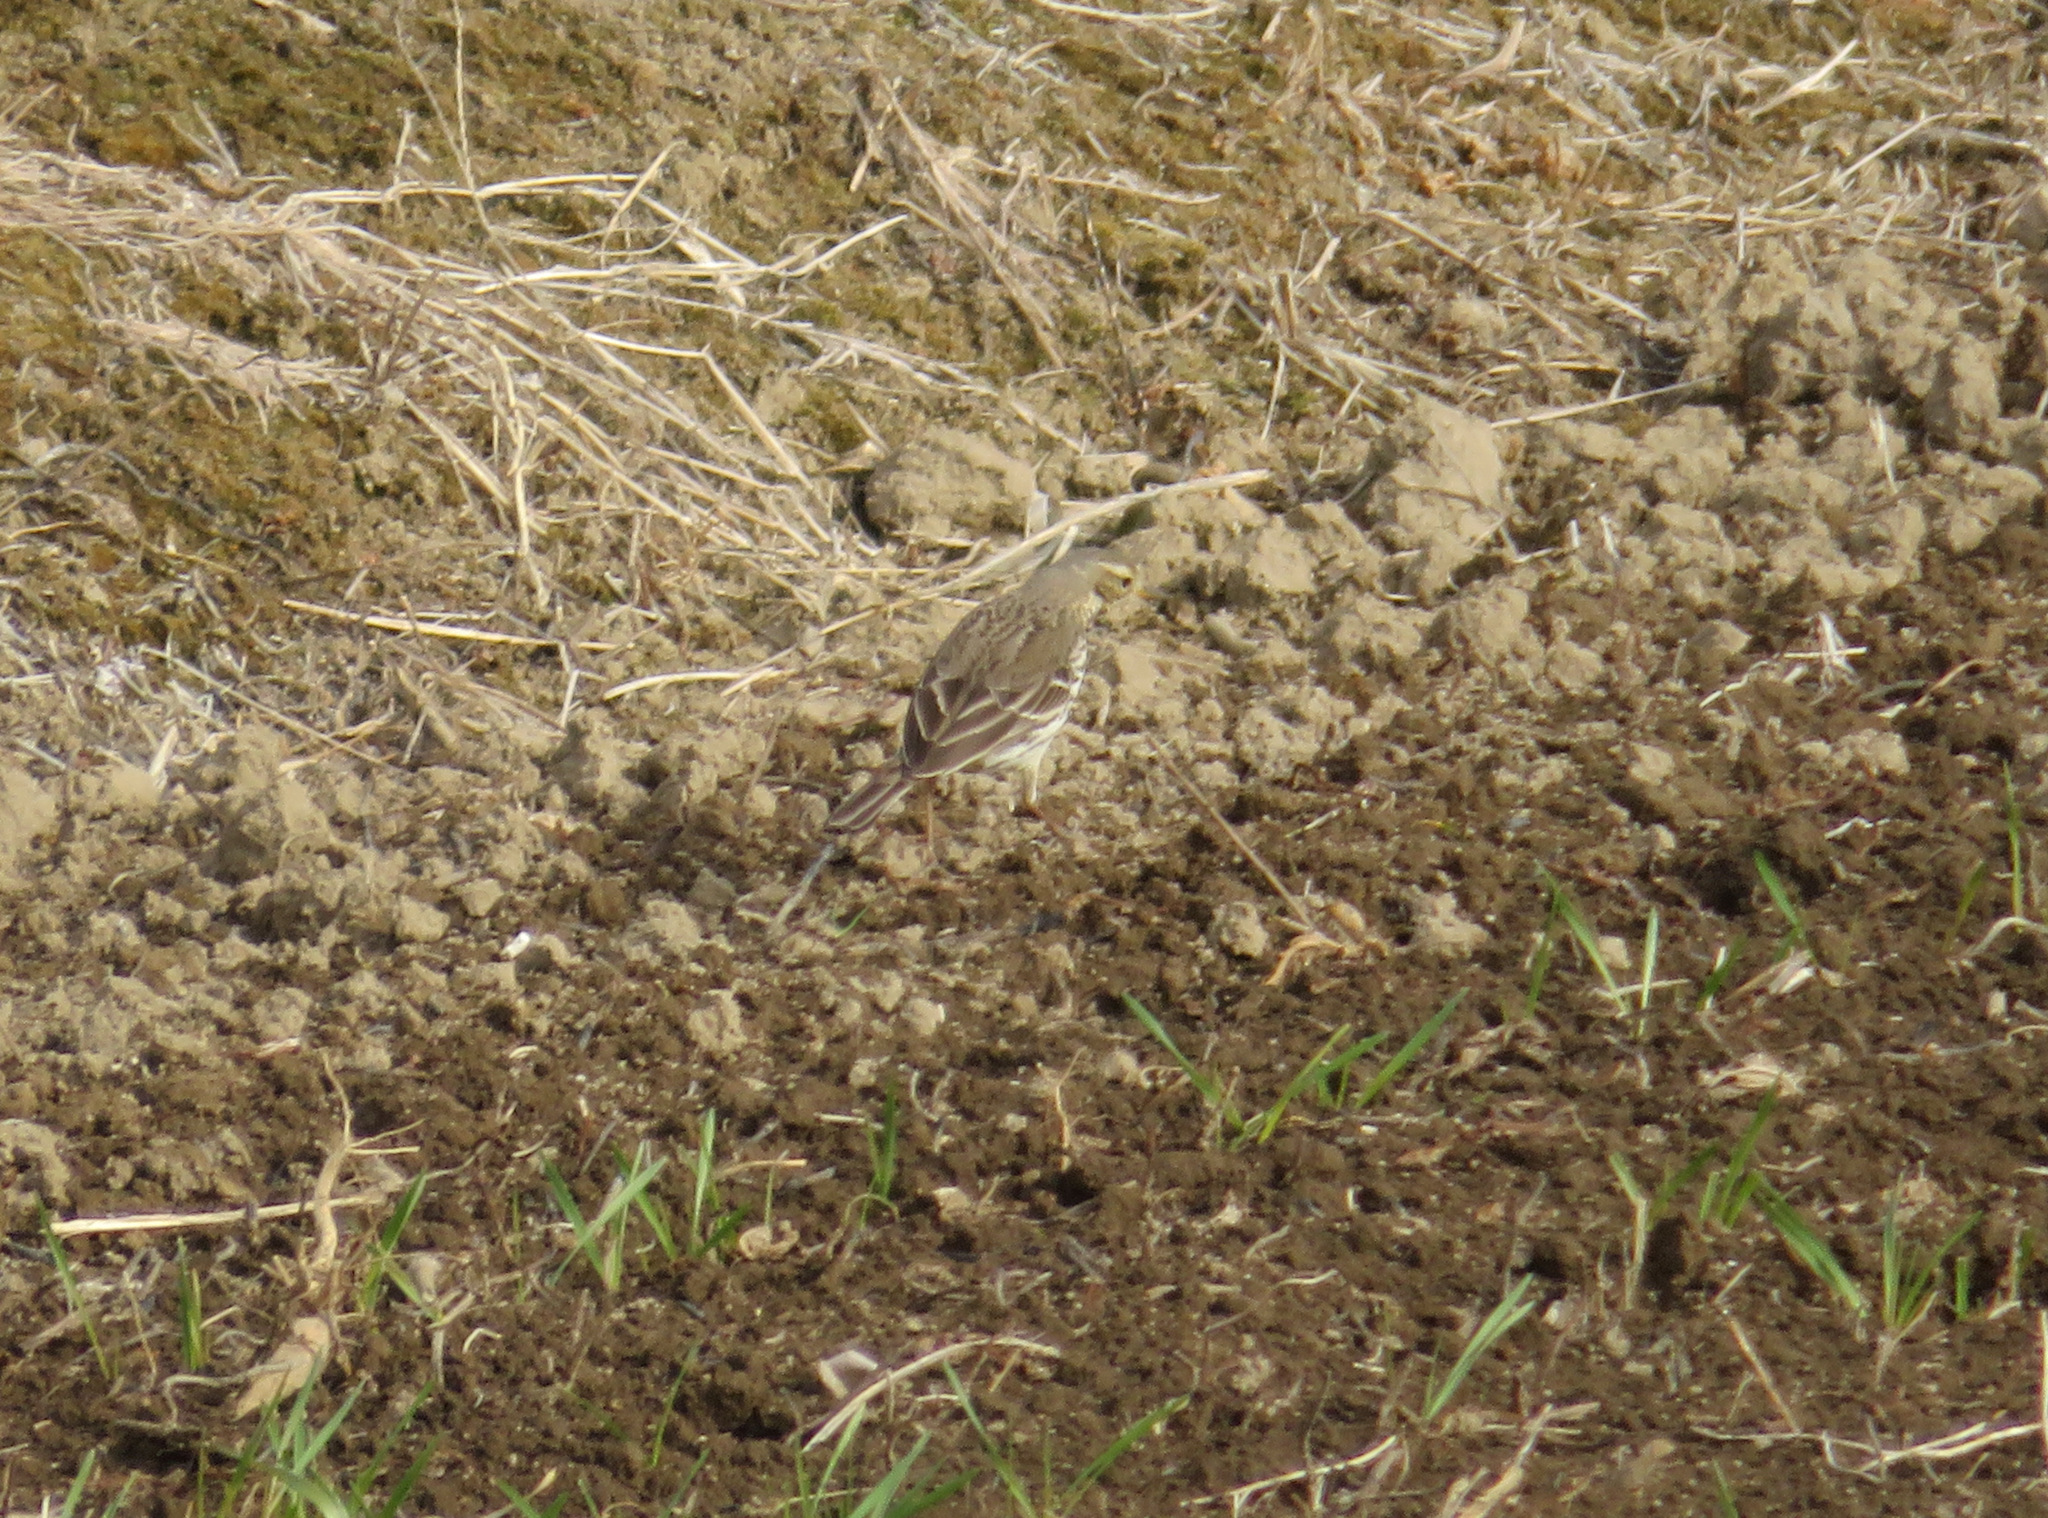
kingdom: Animalia
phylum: Chordata
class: Aves
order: Passeriformes
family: Motacillidae
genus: Anthus
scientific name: Anthus rubescens
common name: Buff-bellied pipit
